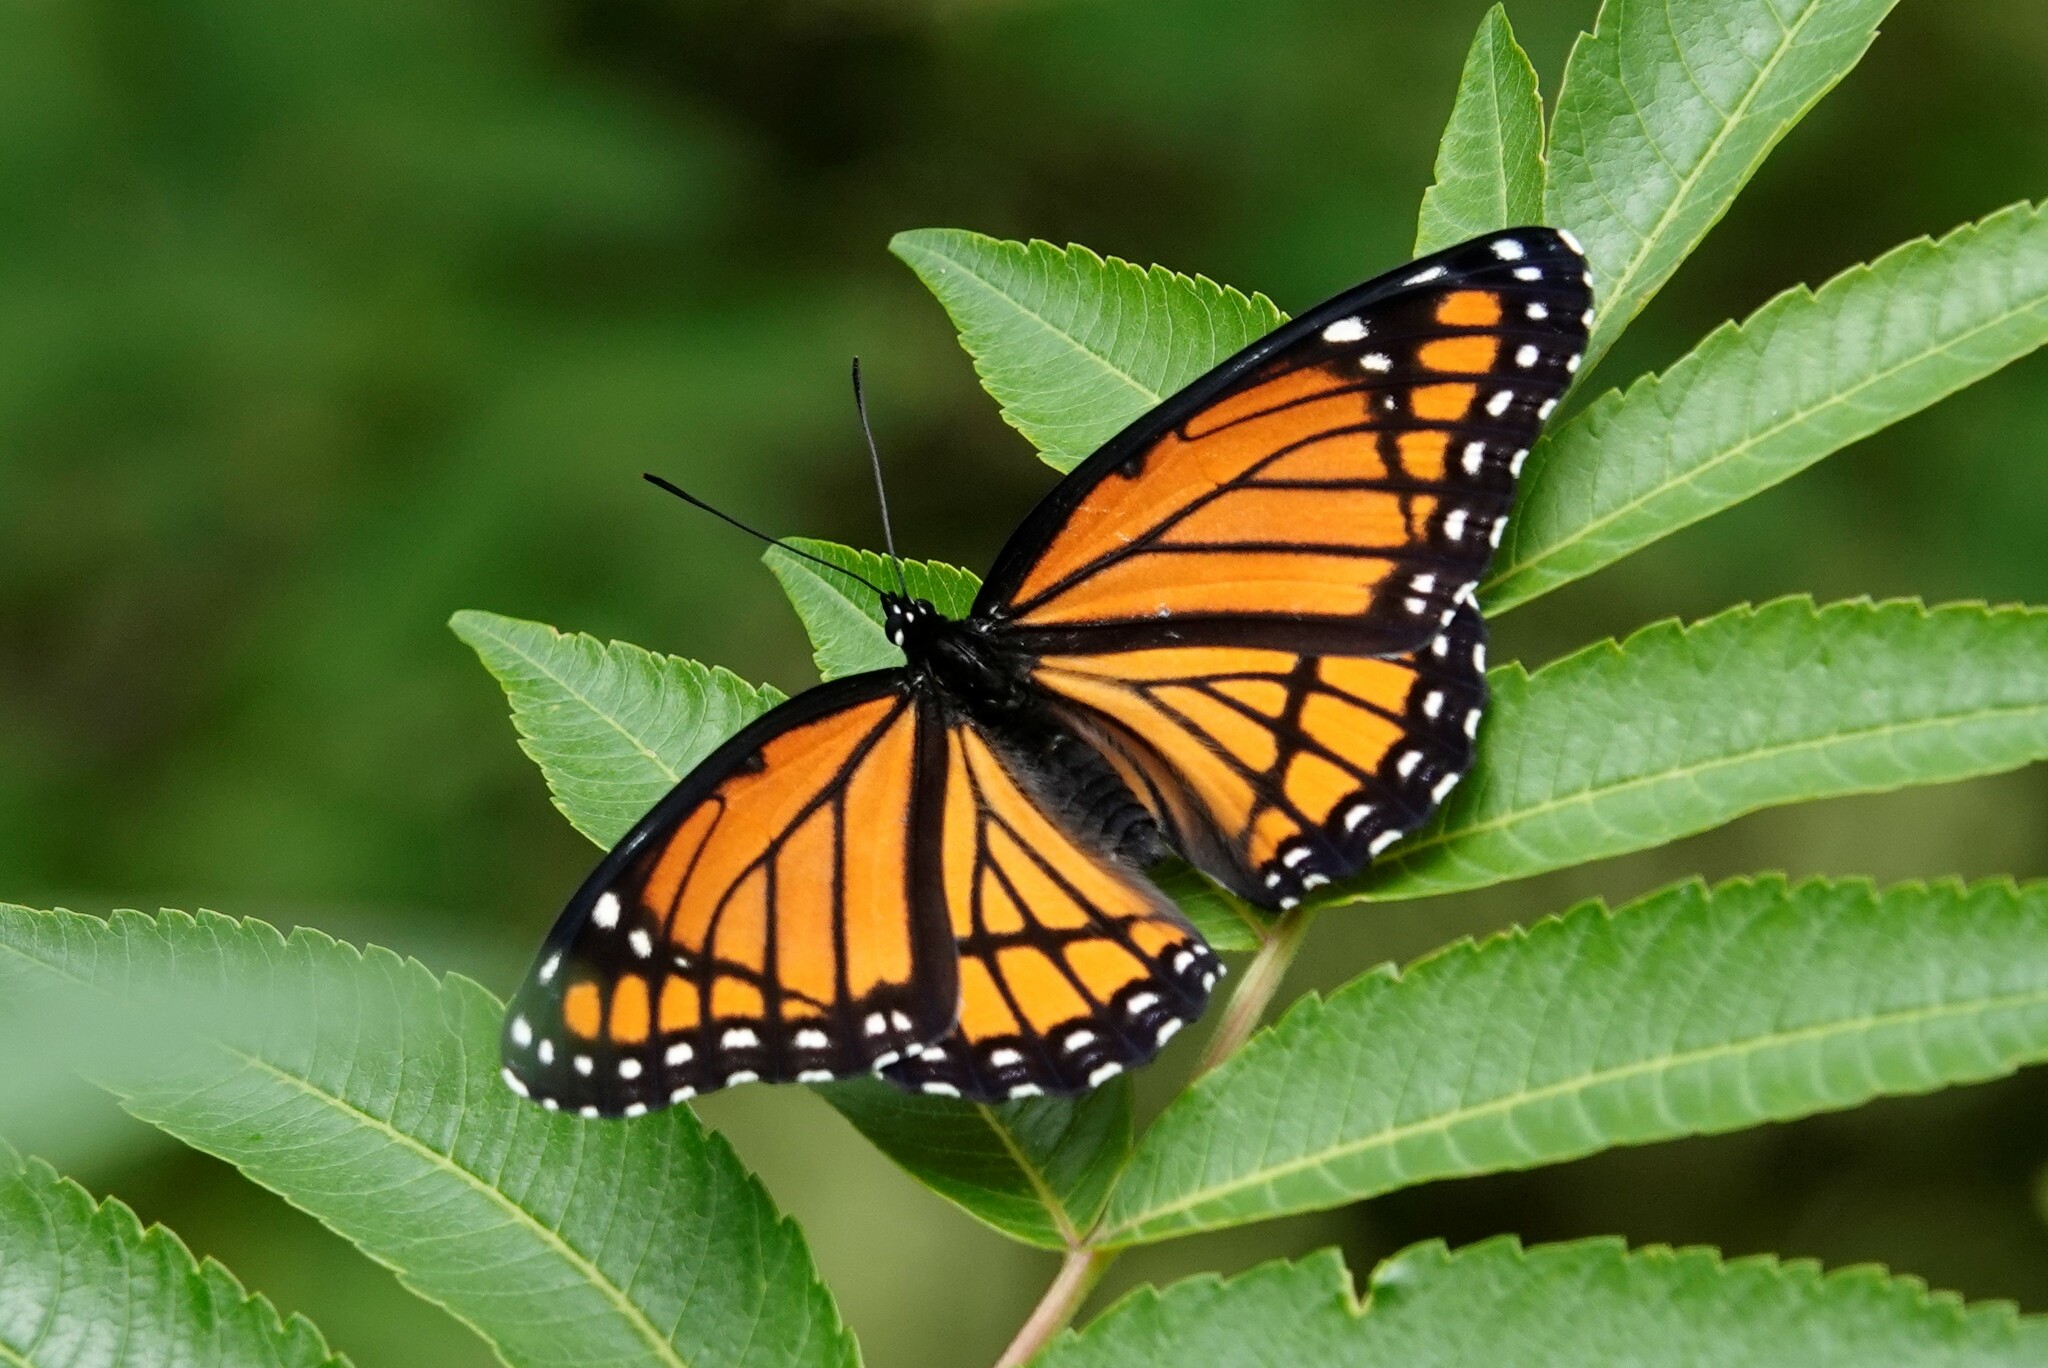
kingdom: Animalia
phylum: Arthropoda
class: Insecta
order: Lepidoptera
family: Nymphalidae
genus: Limenitis
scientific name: Limenitis archippus
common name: Viceroy
